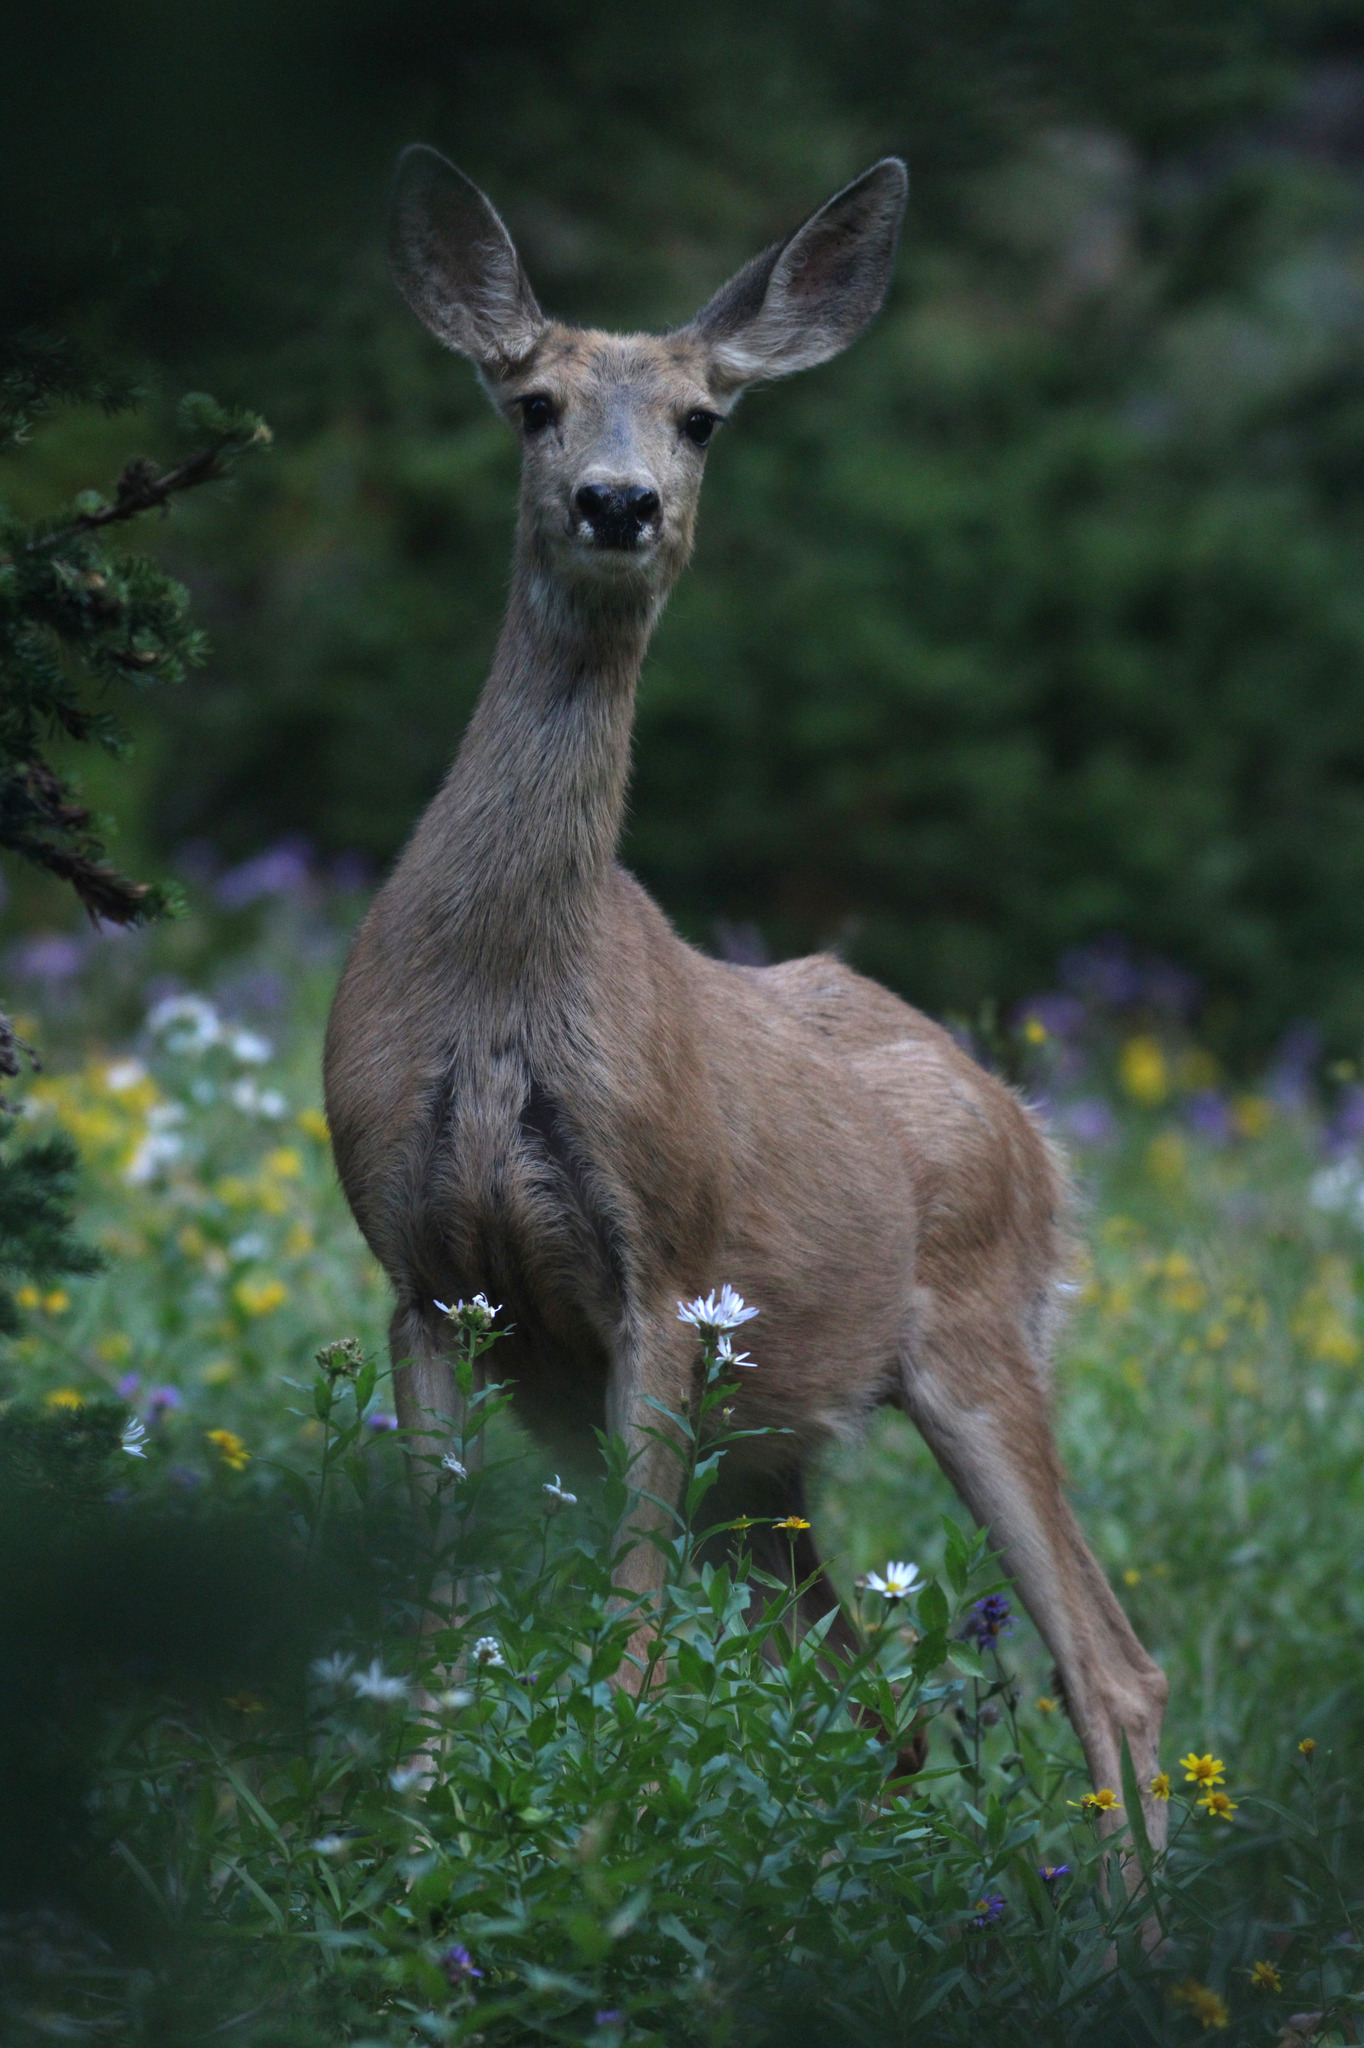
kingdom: Animalia
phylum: Chordata
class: Mammalia
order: Artiodactyla
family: Cervidae
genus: Odocoileus
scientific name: Odocoileus hemionus
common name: Mule deer
